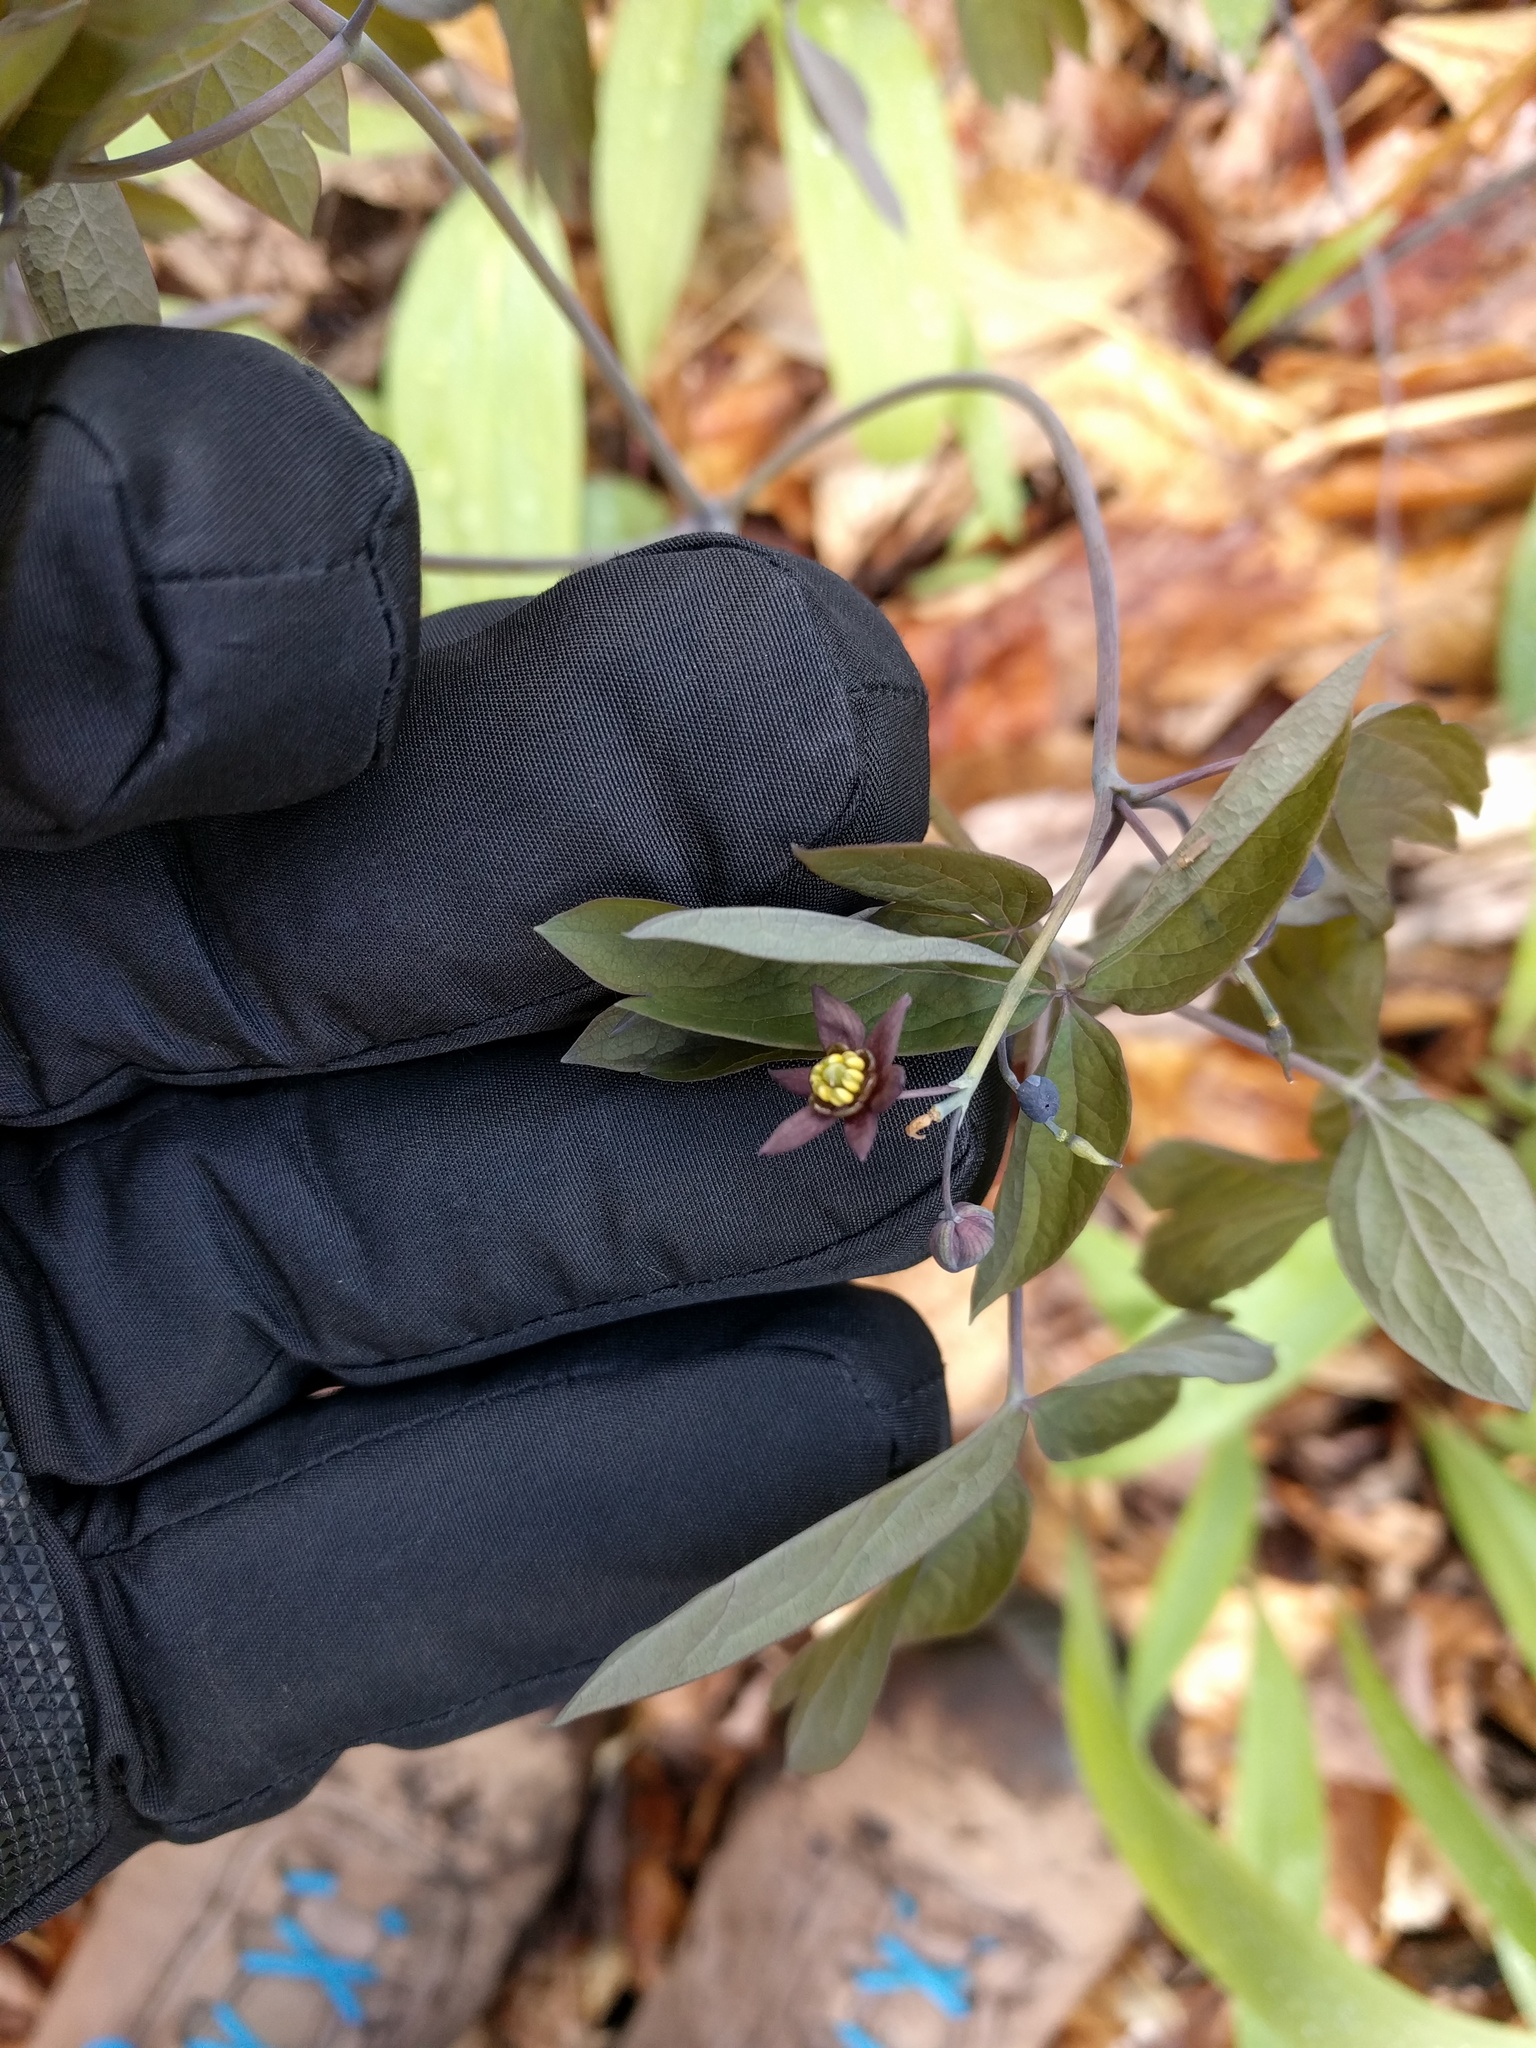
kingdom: Plantae
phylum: Tracheophyta
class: Magnoliopsida
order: Ranunculales
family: Berberidaceae
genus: Caulophyllum
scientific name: Caulophyllum giganteum
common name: Blue cohosh
